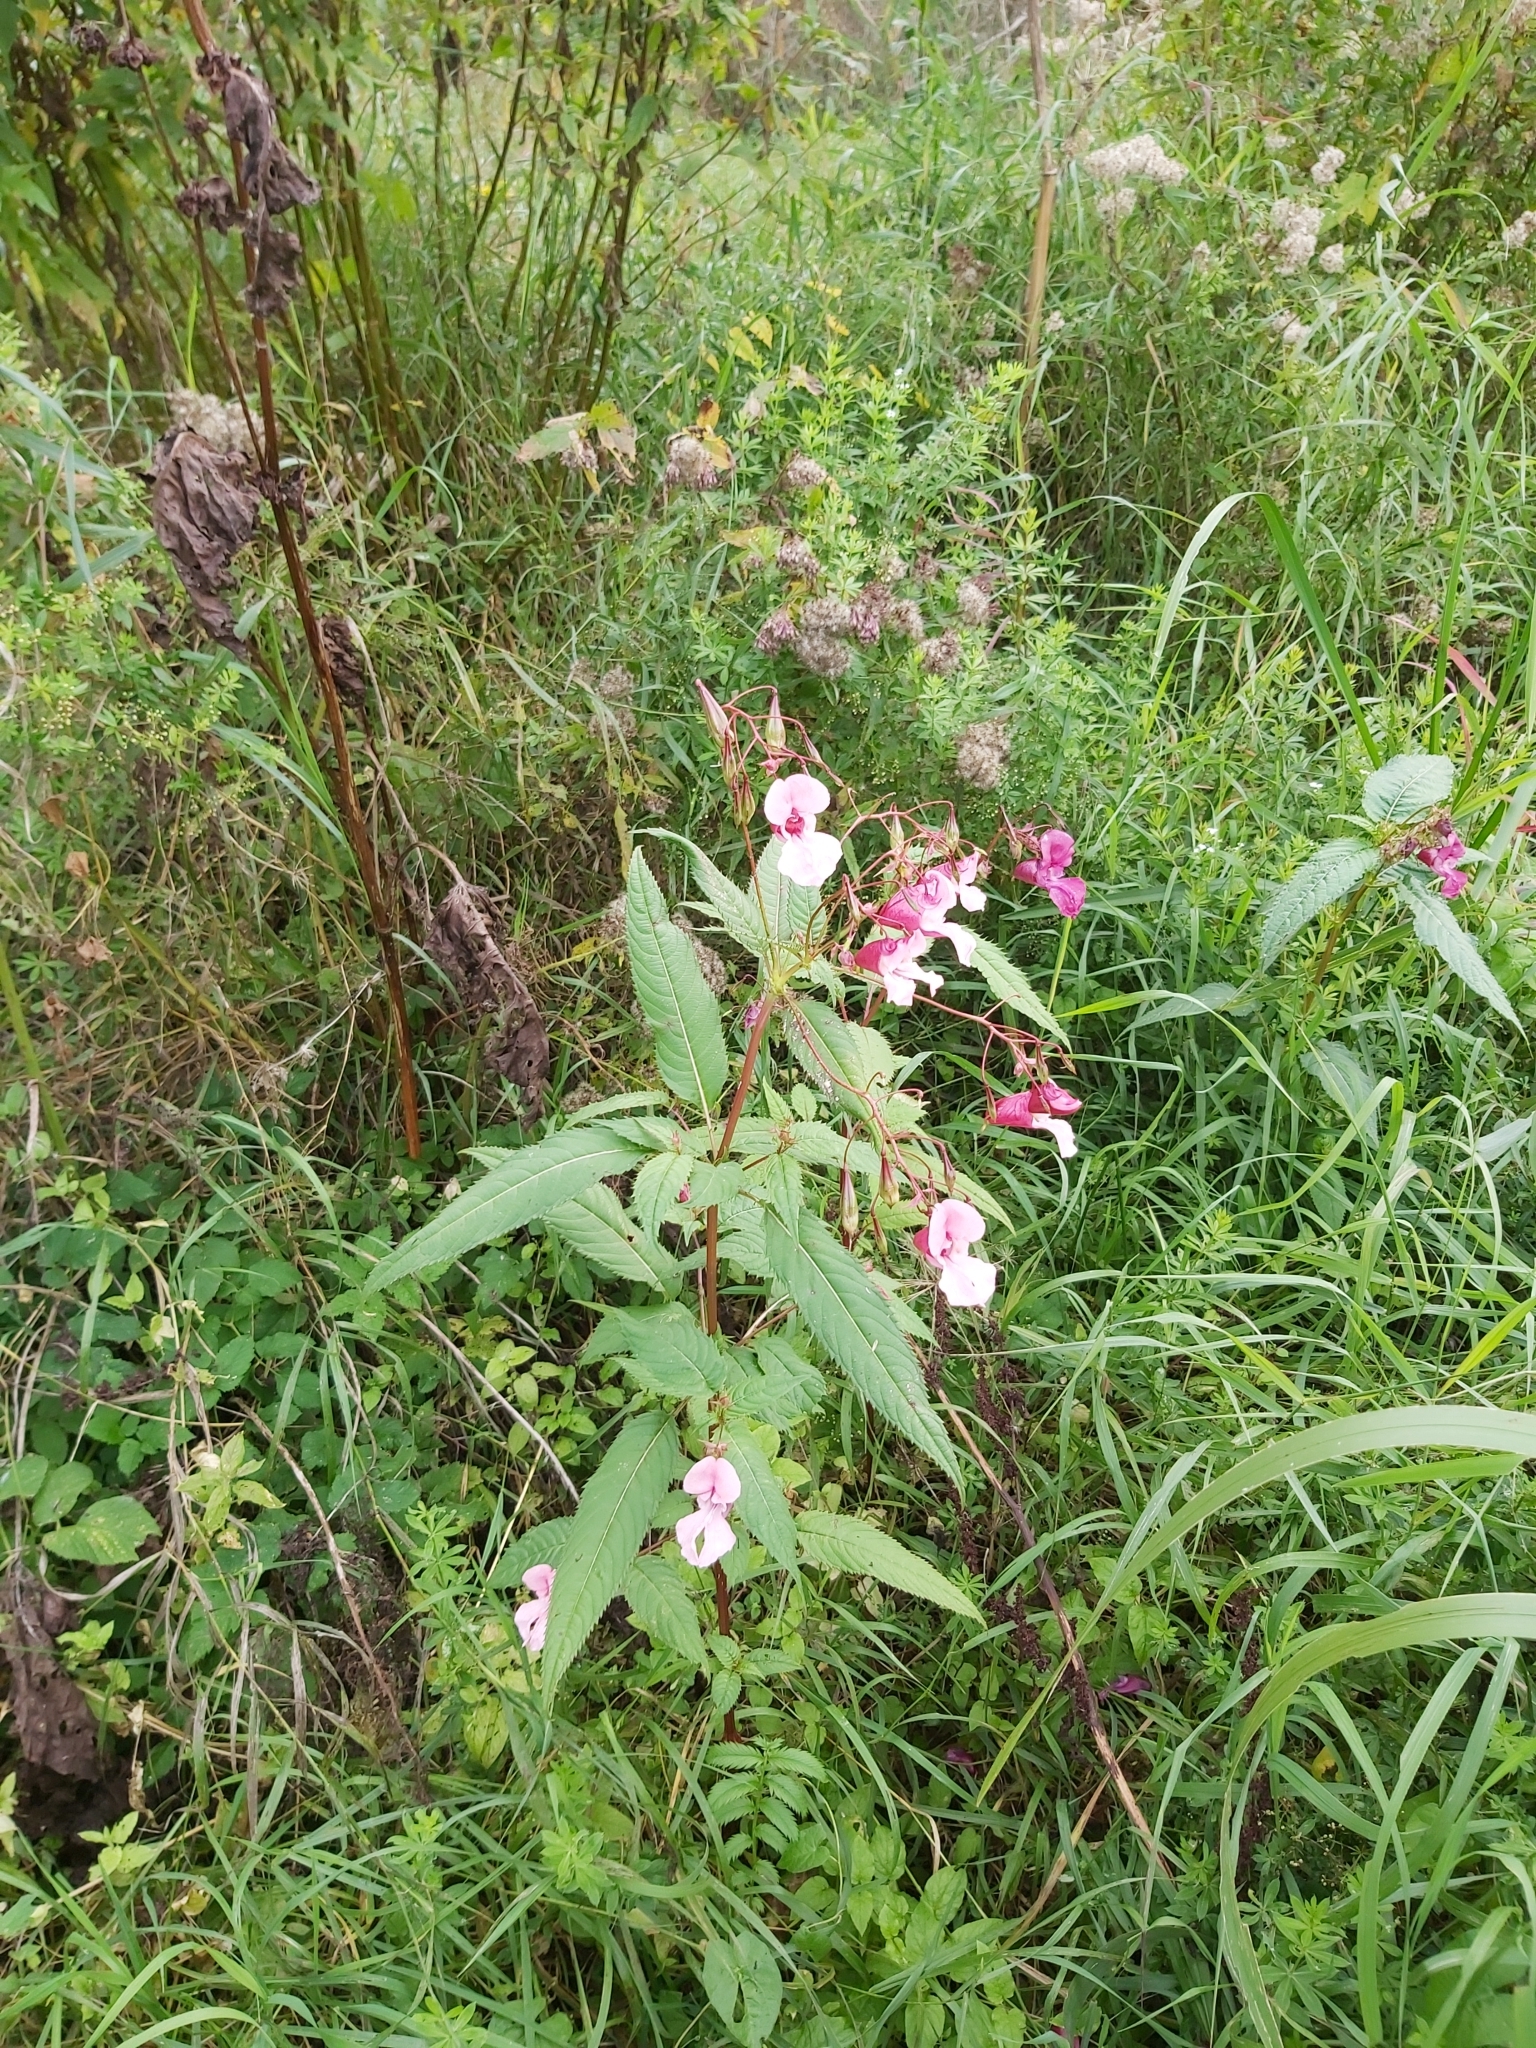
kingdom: Plantae
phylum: Tracheophyta
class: Magnoliopsida
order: Ericales
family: Balsaminaceae
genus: Impatiens
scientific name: Impatiens glandulifera
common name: Himalayan balsam
